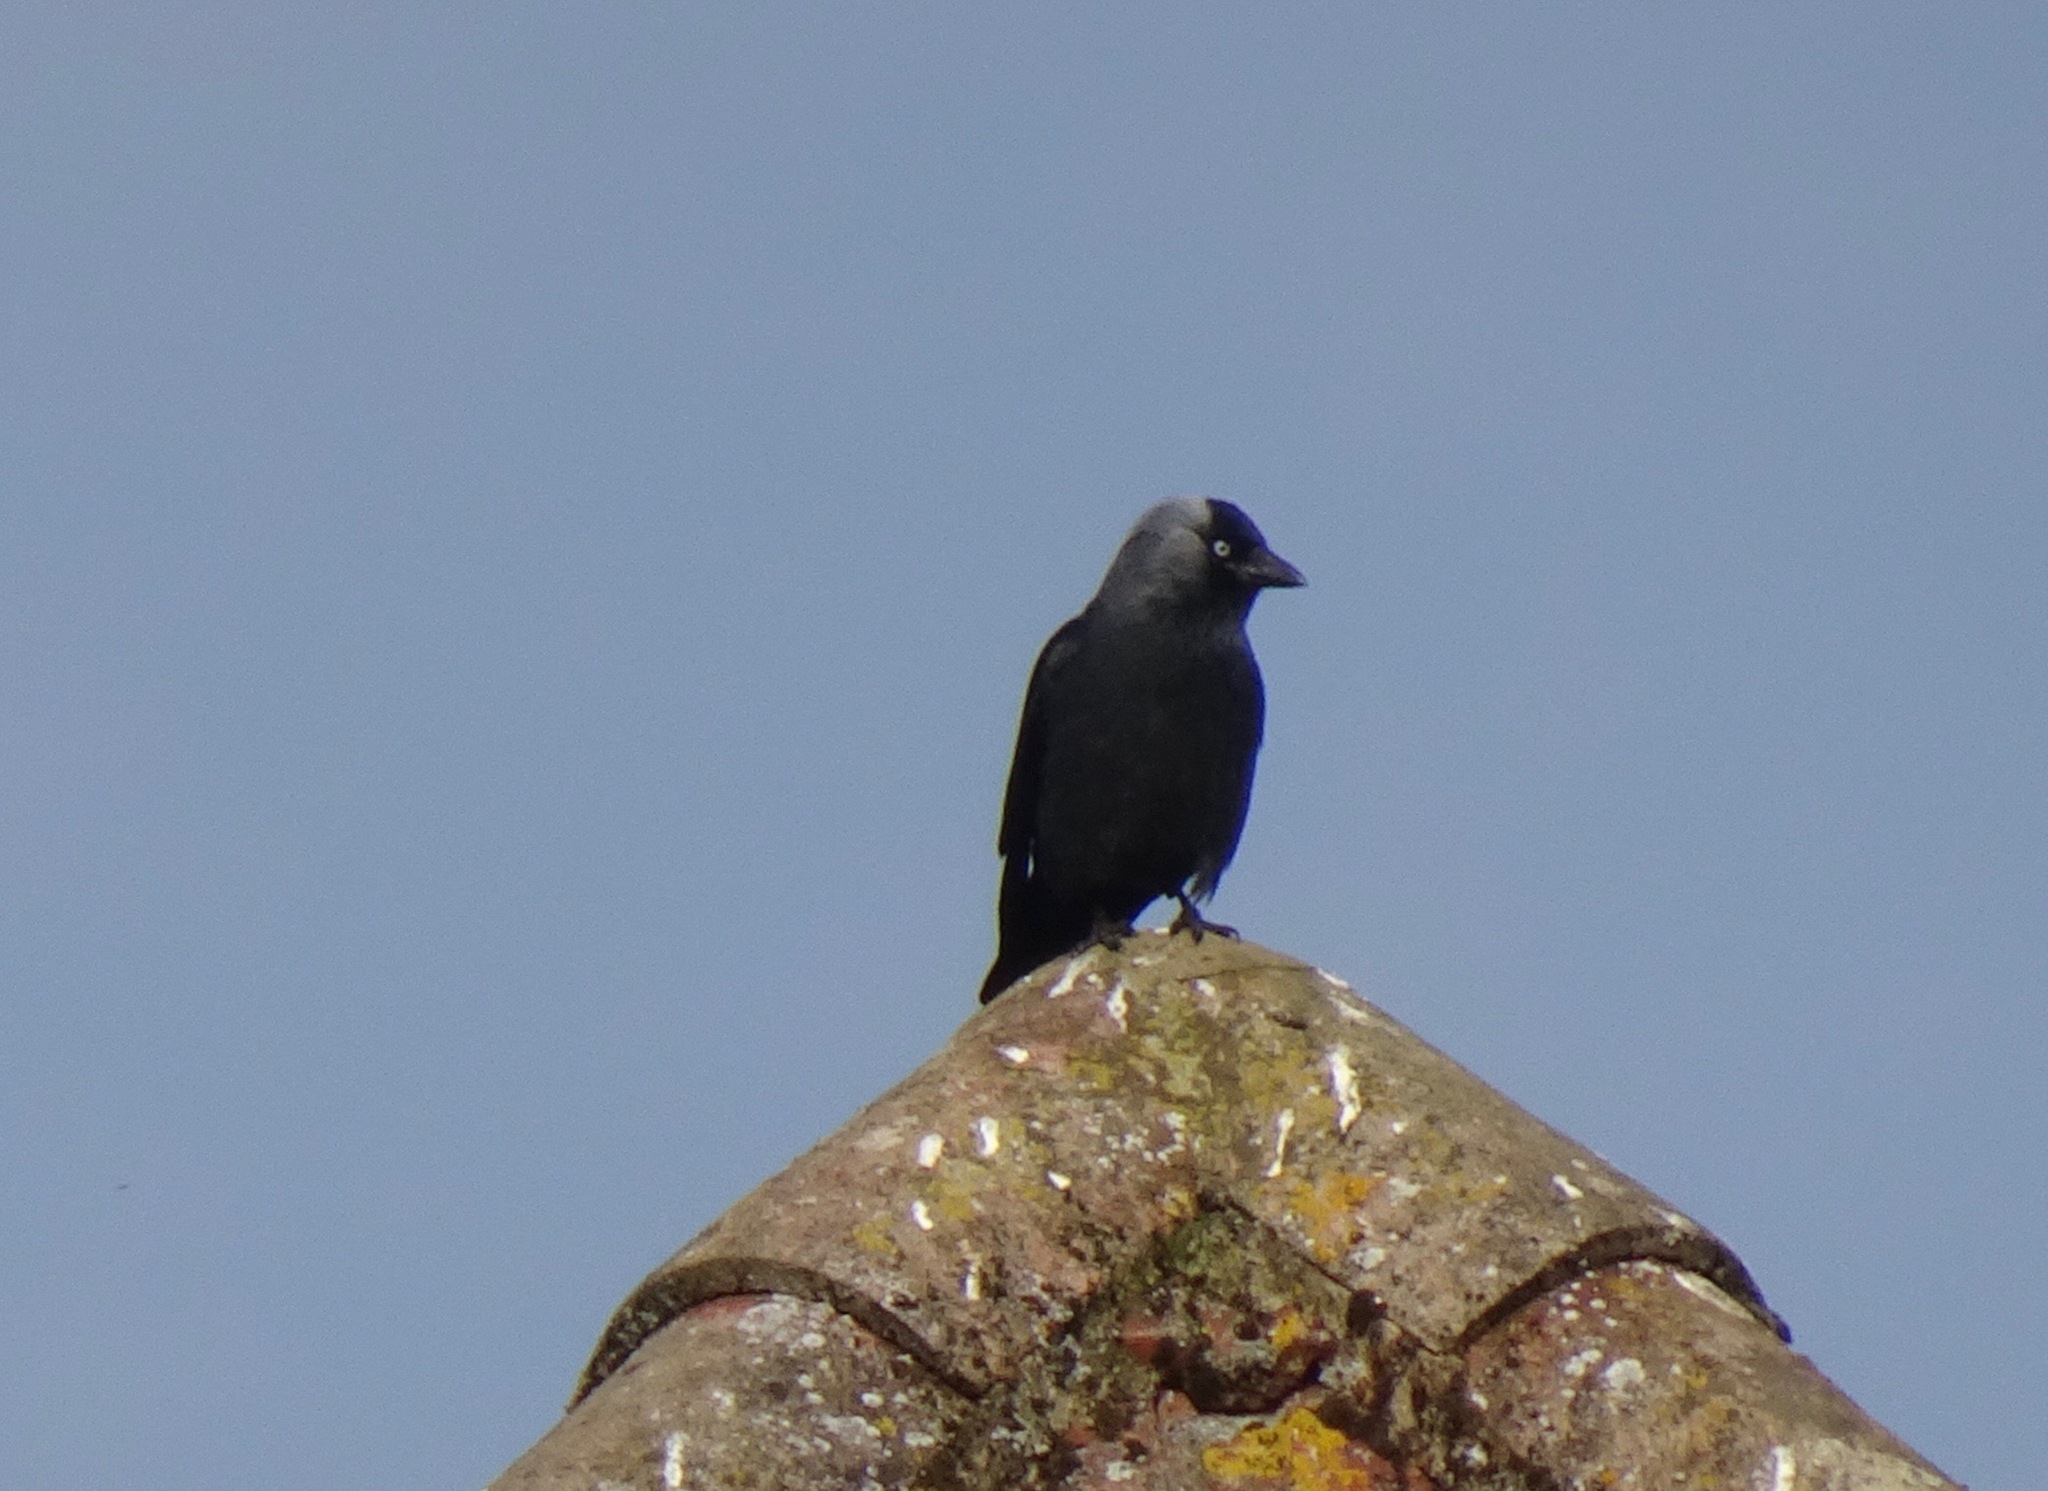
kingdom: Animalia
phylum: Chordata
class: Aves
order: Passeriformes
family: Corvidae
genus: Coloeus
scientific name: Coloeus monedula
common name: Western jackdaw
